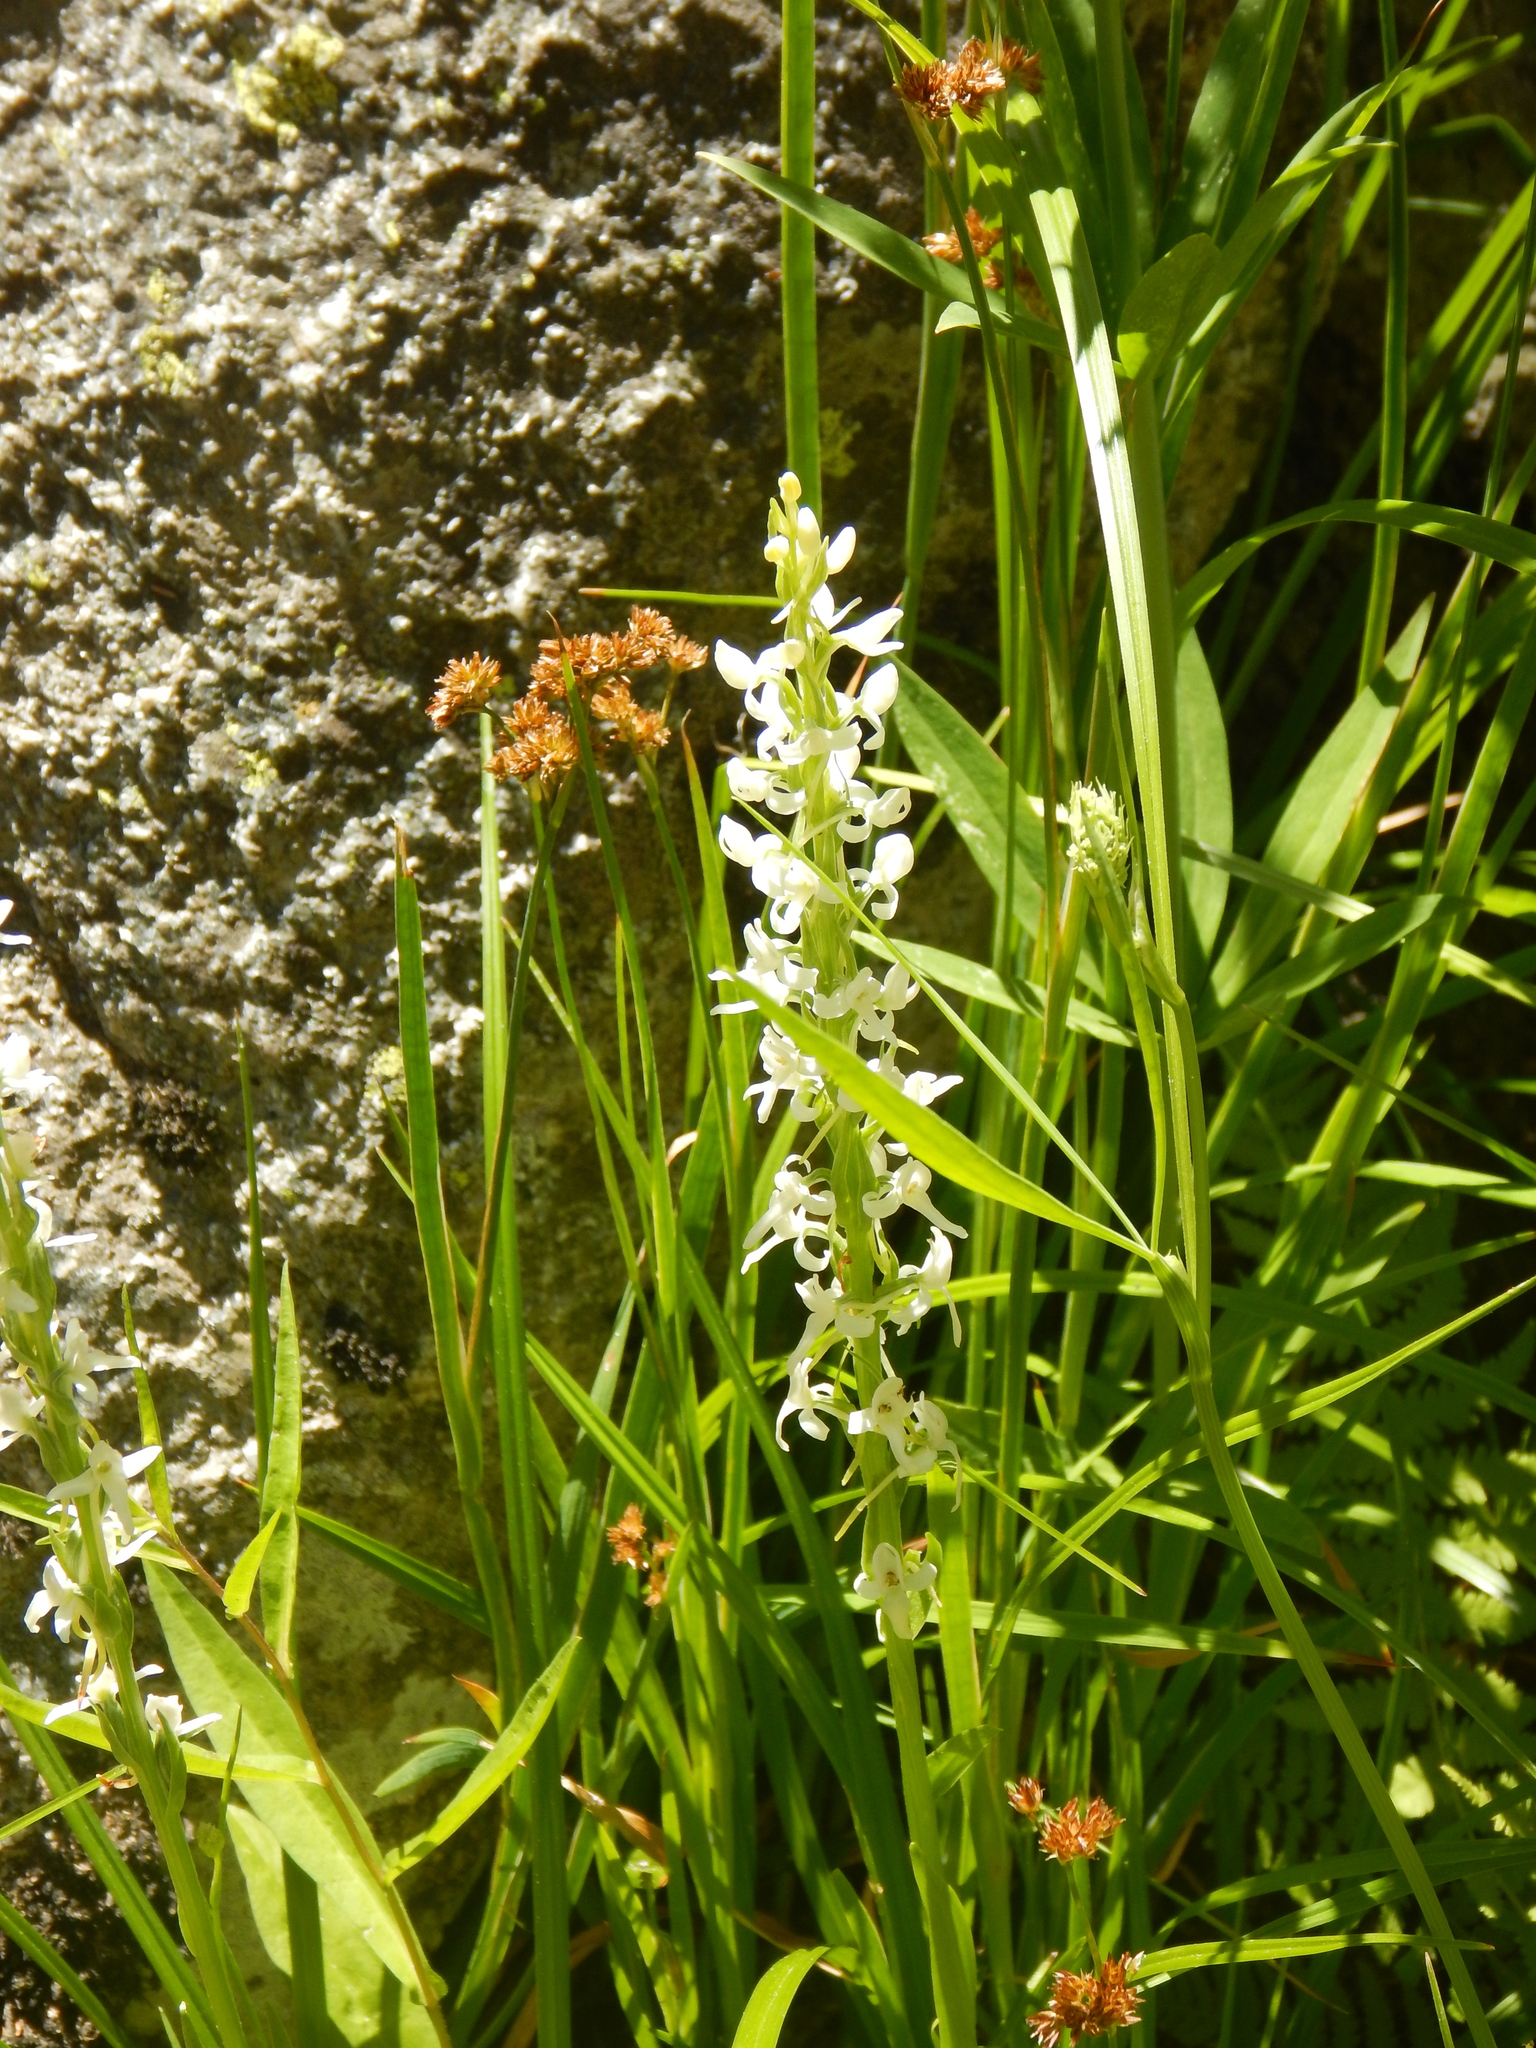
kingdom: Plantae
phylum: Tracheophyta
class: Liliopsida
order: Asparagales
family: Orchidaceae
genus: Platanthera
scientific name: Platanthera dilatata
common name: Bog candles
